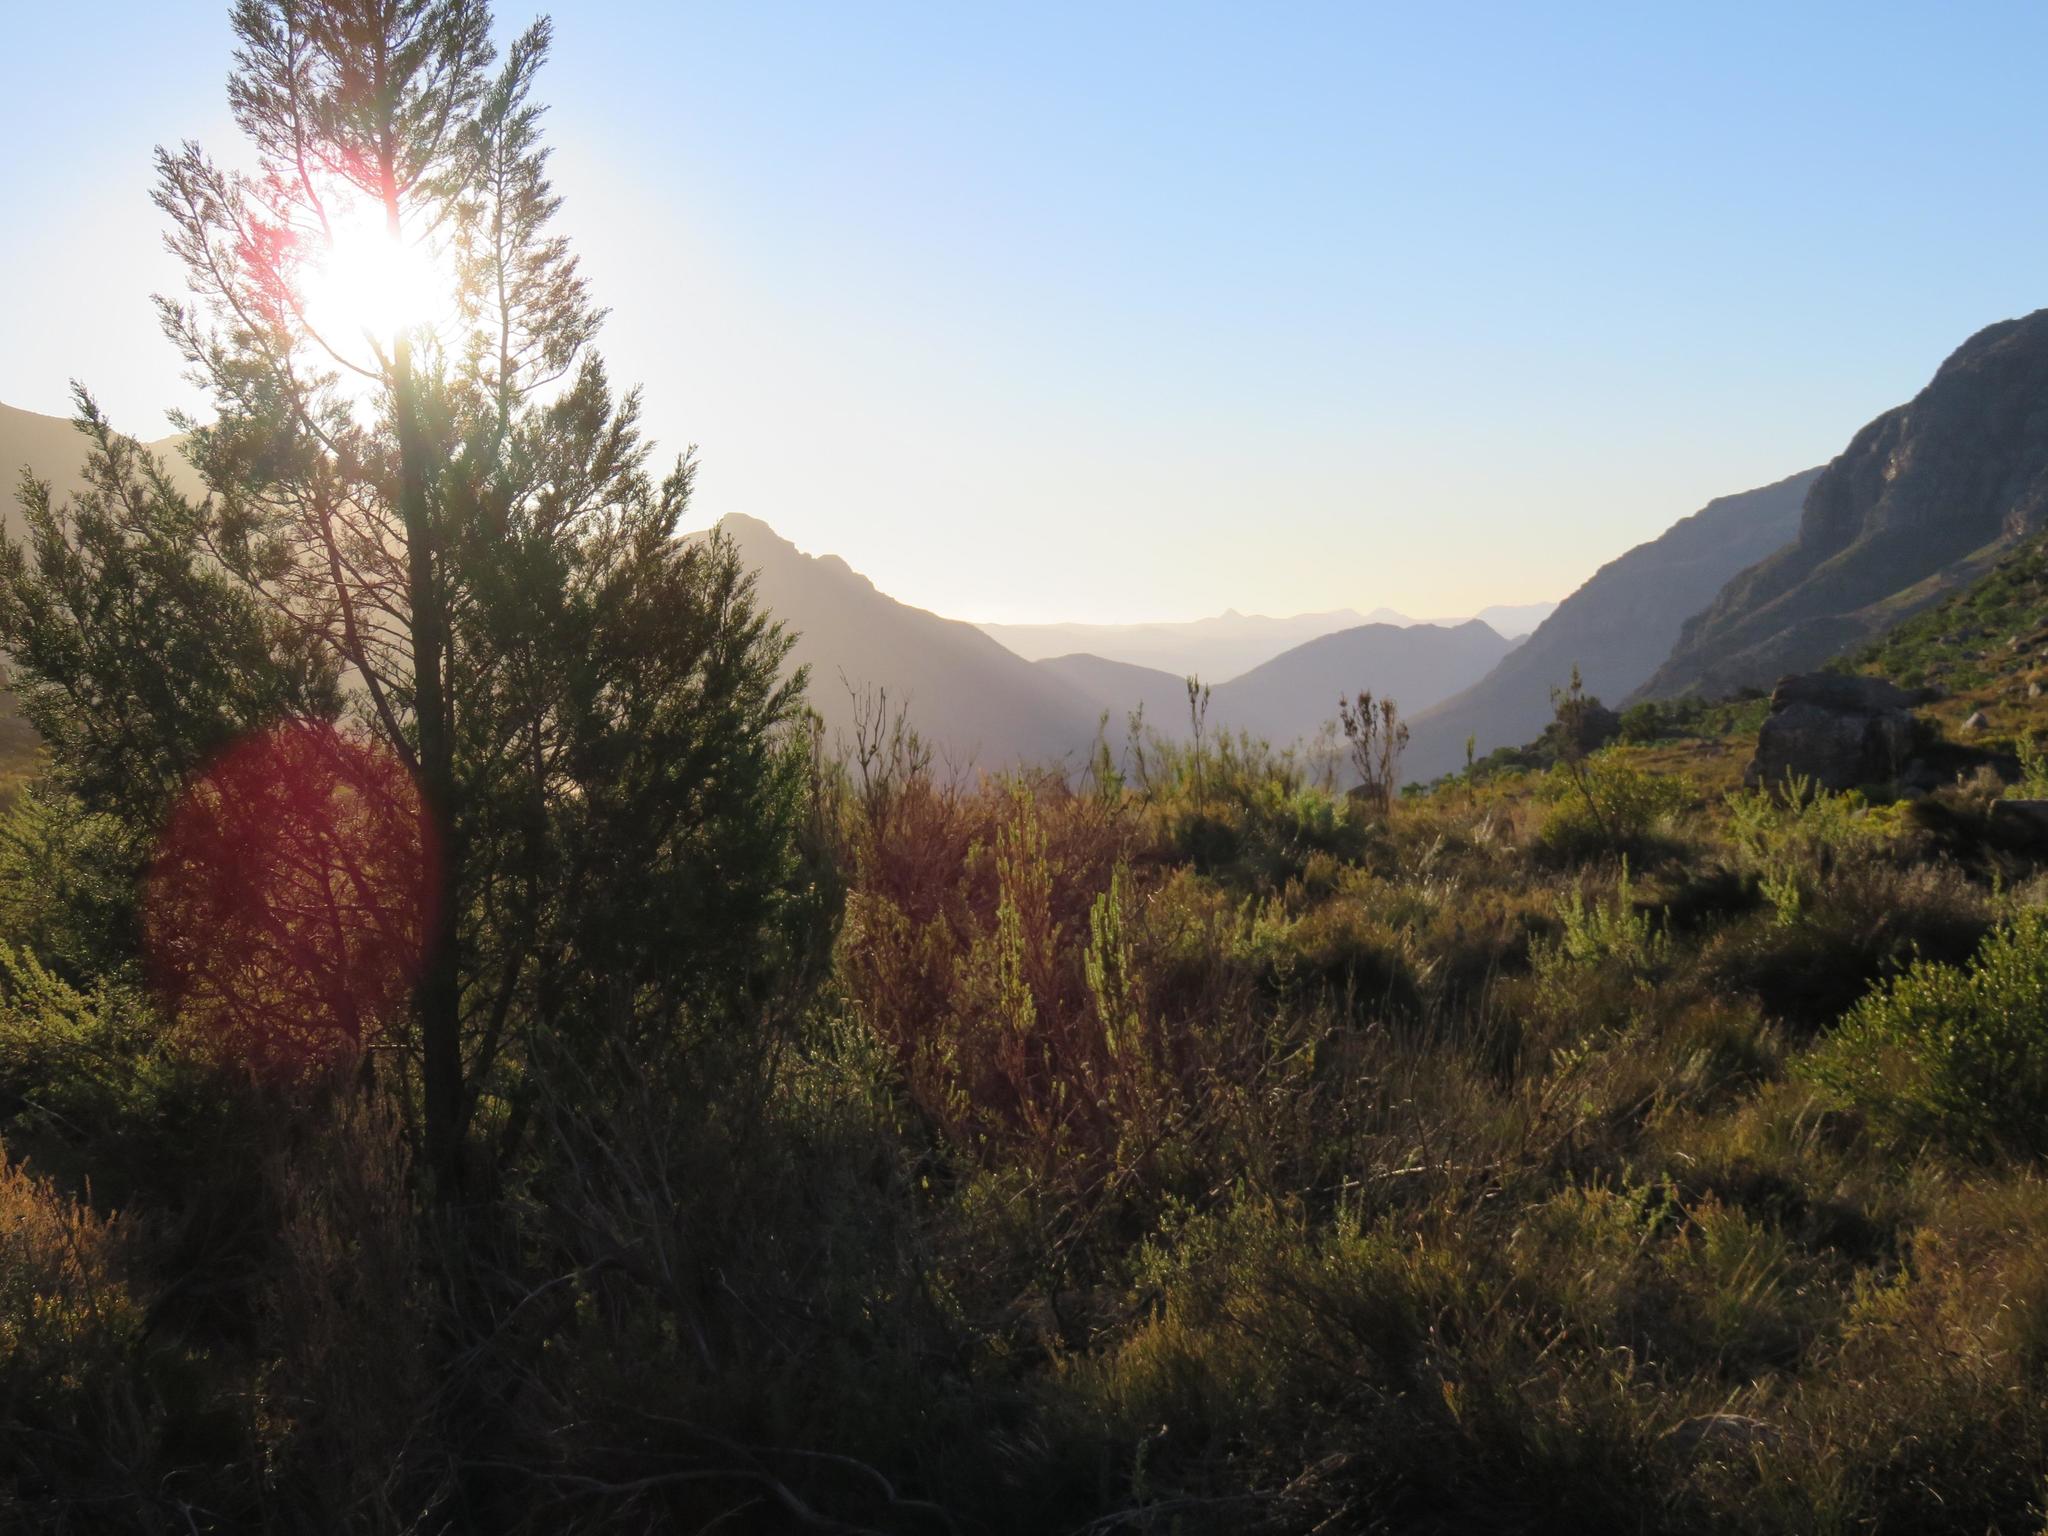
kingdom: Plantae
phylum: Tracheophyta
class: Pinopsida
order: Pinales
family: Cupressaceae
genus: Widdringtonia
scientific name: Widdringtonia nodiflora
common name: Cape cypress
